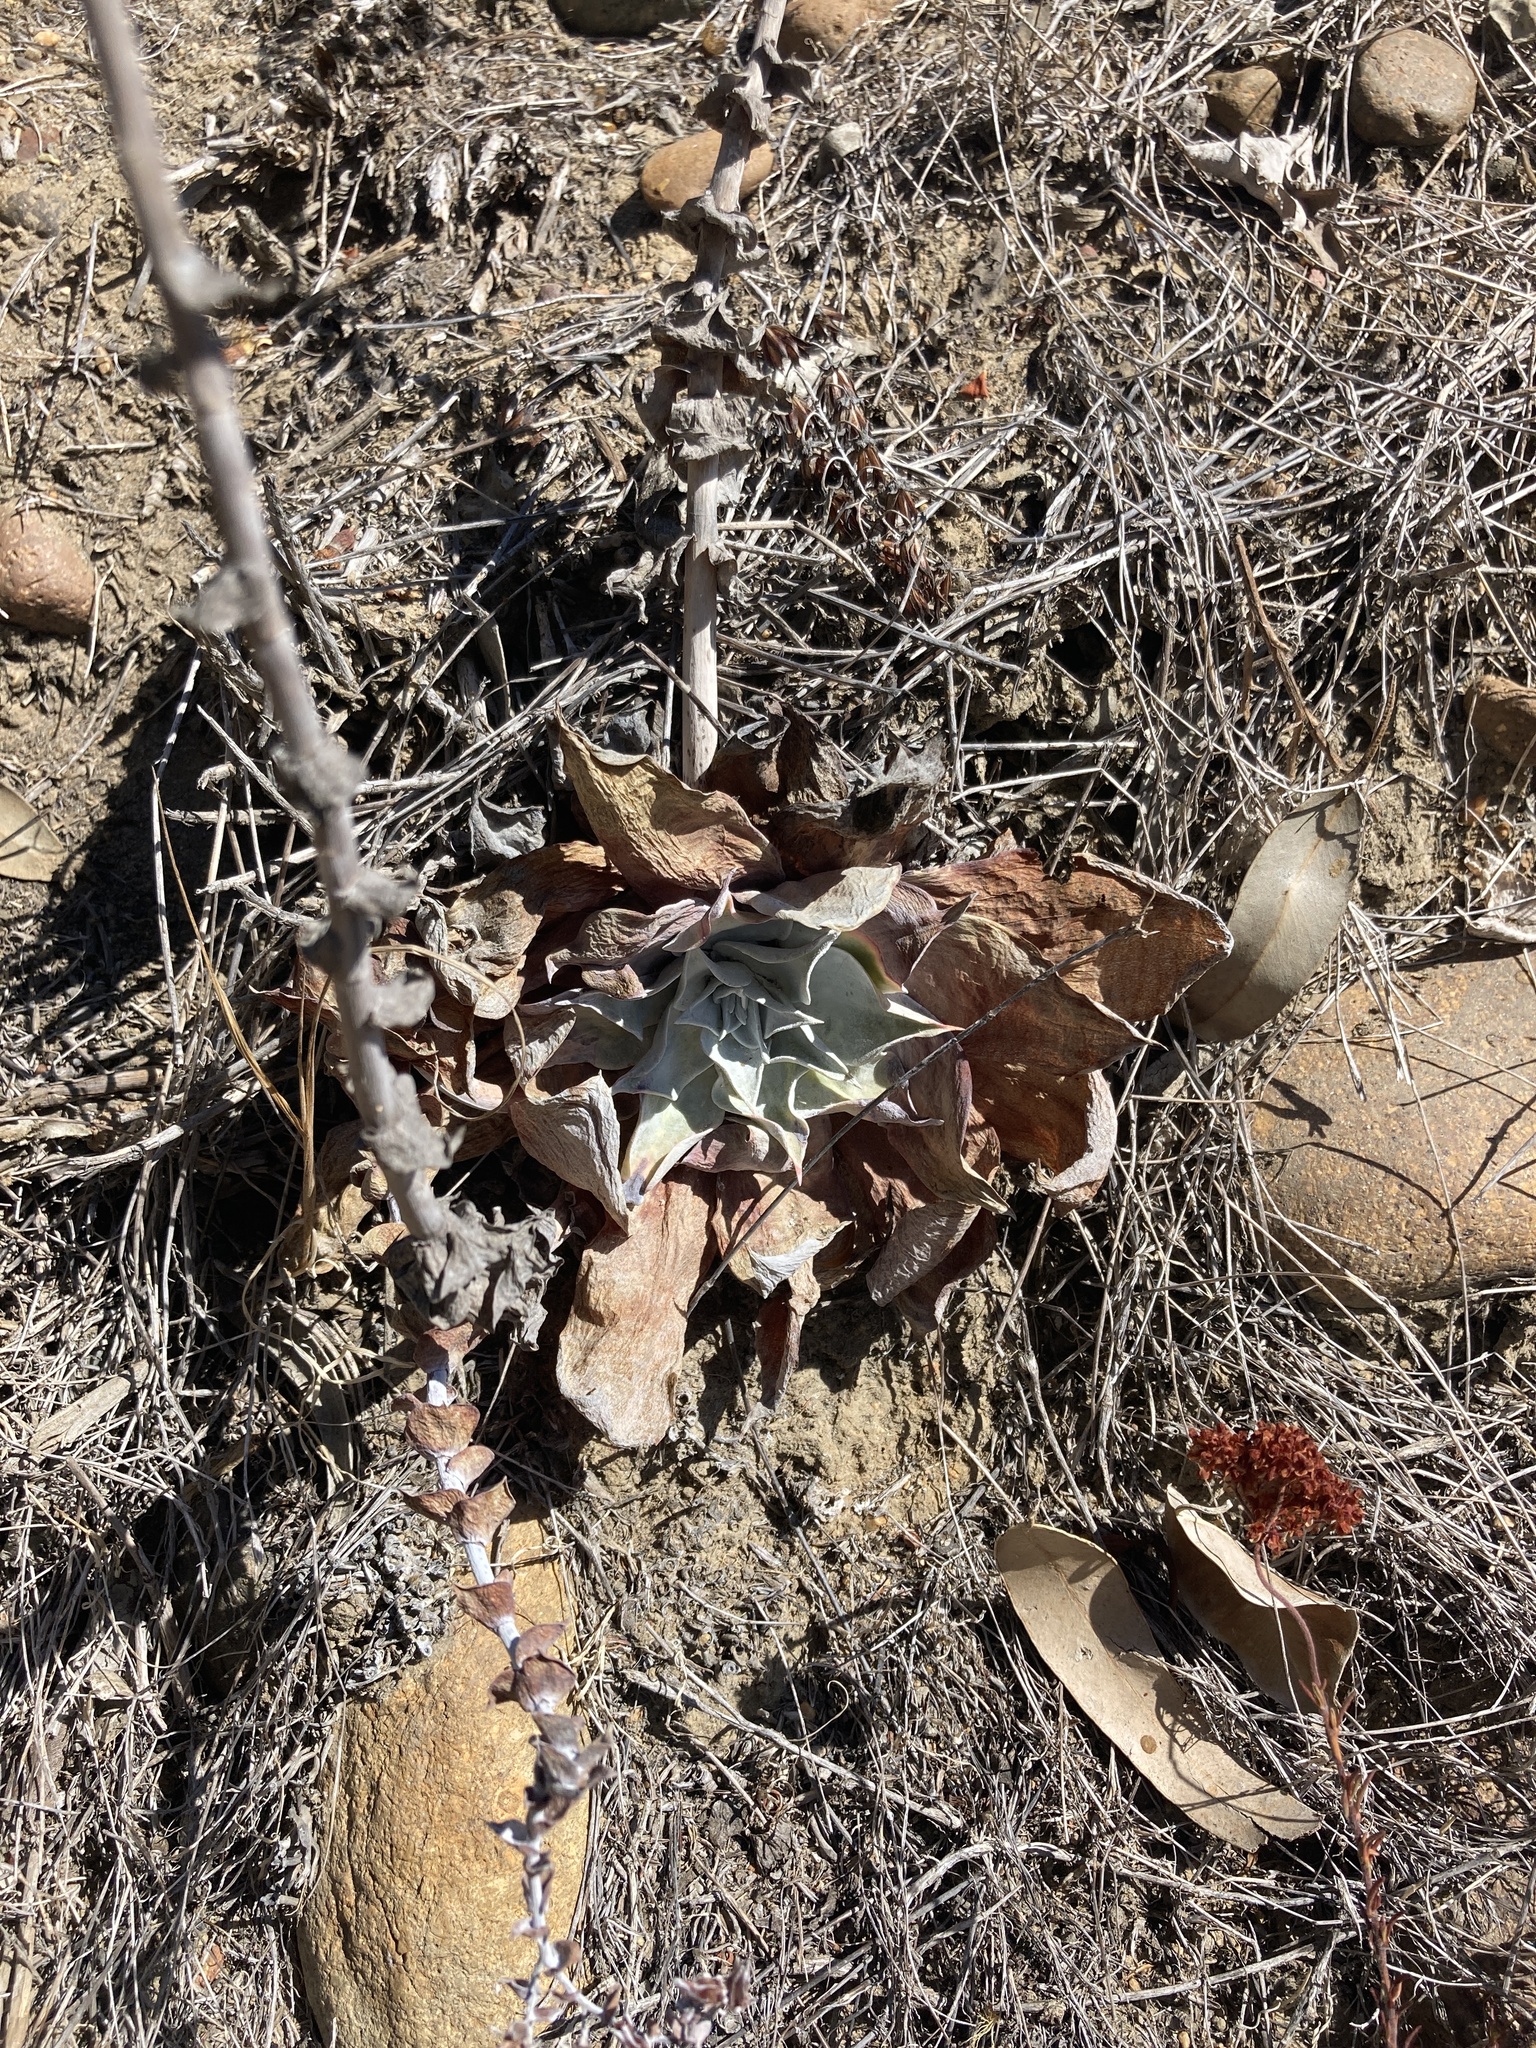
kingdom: Plantae
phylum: Tracheophyta
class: Magnoliopsida
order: Saxifragales
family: Crassulaceae
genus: Dudleya
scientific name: Dudleya pulverulenta
